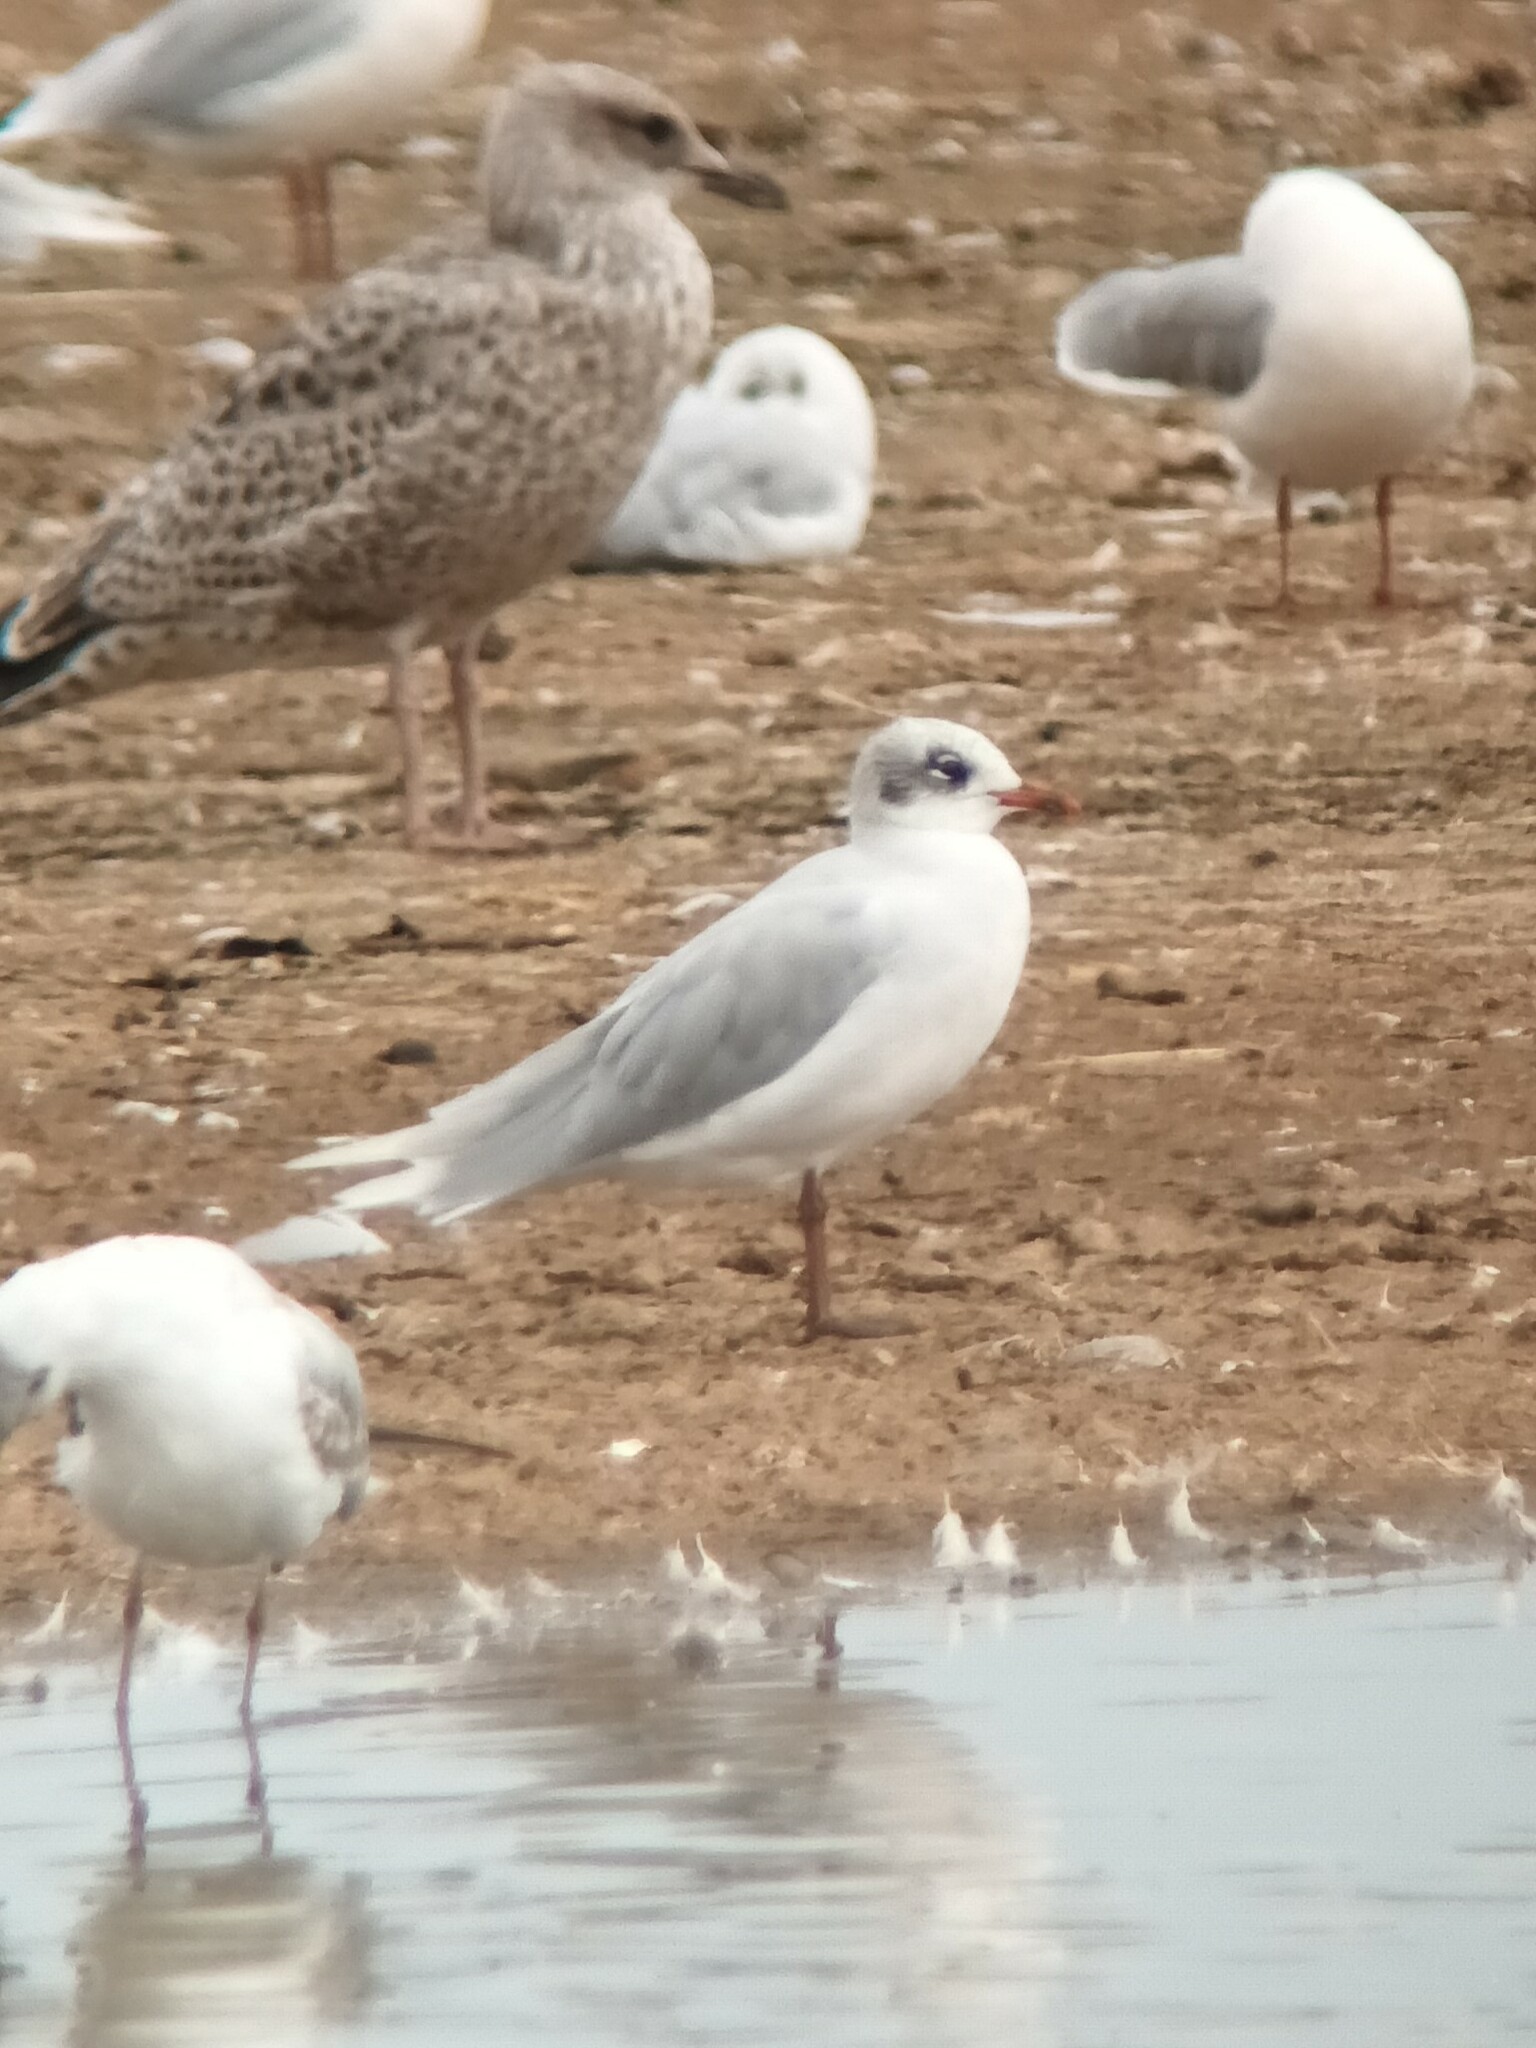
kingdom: Animalia
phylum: Chordata
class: Aves
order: Charadriiformes
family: Laridae
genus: Ichthyaetus
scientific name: Ichthyaetus melanocephalus
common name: Mediterranean gull
